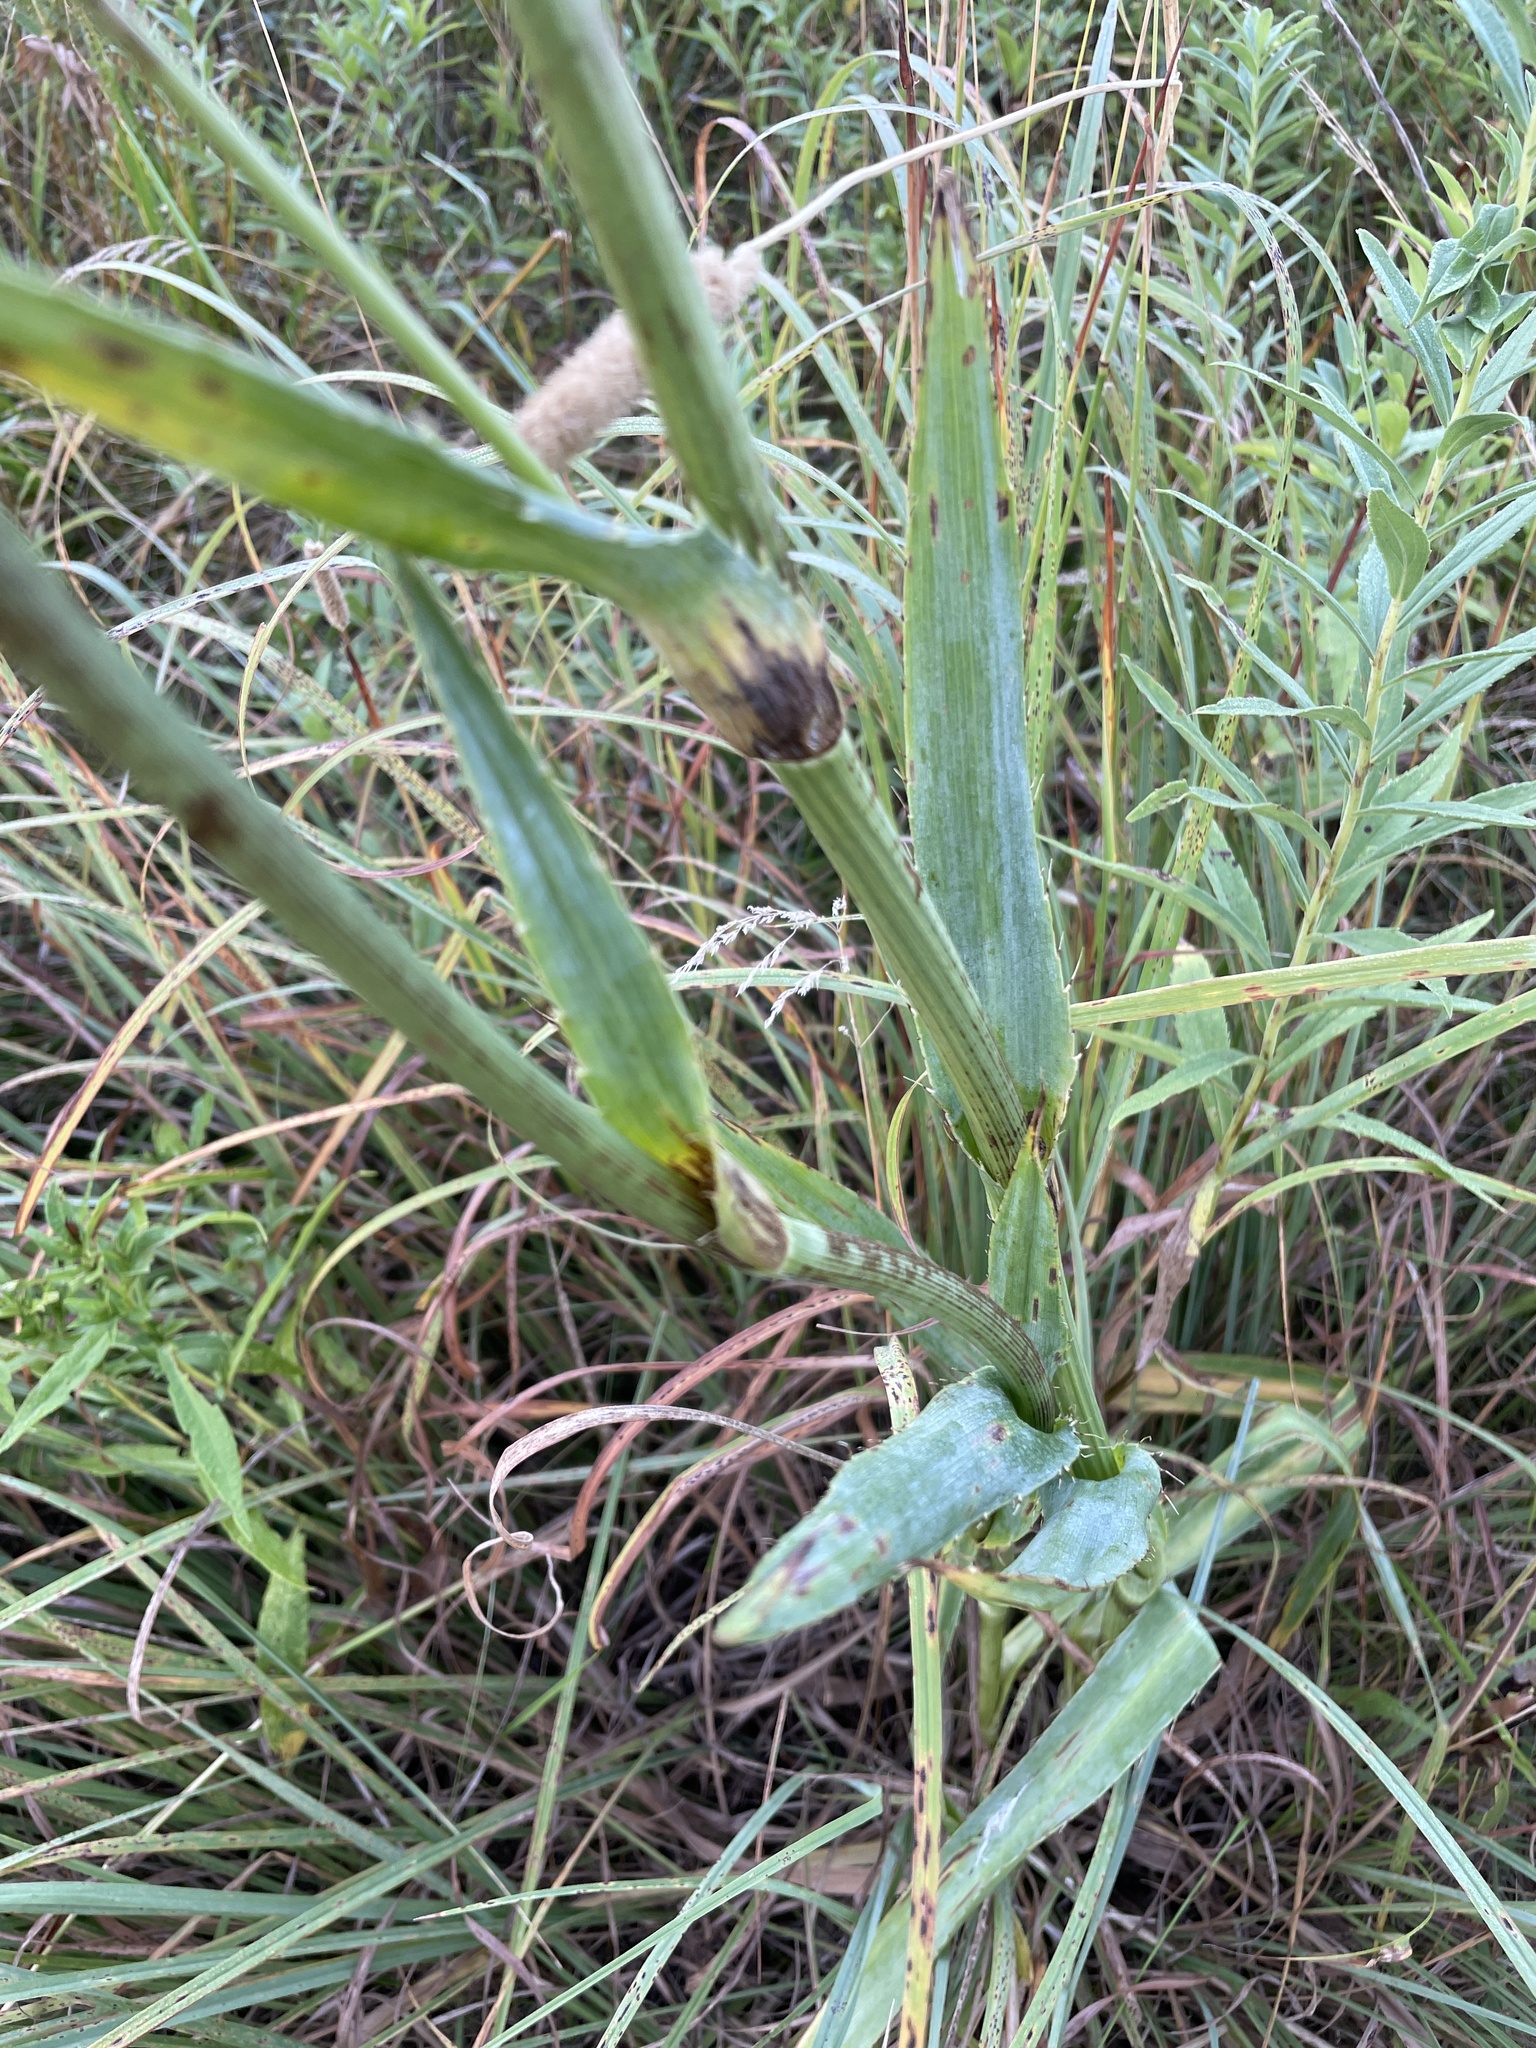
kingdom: Plantae
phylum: Tracheophyta
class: Magnoliopsida
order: Apiales
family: Apiaceae
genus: Eryngium
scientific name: Eryngium yuccifolium
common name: Button eryngo
